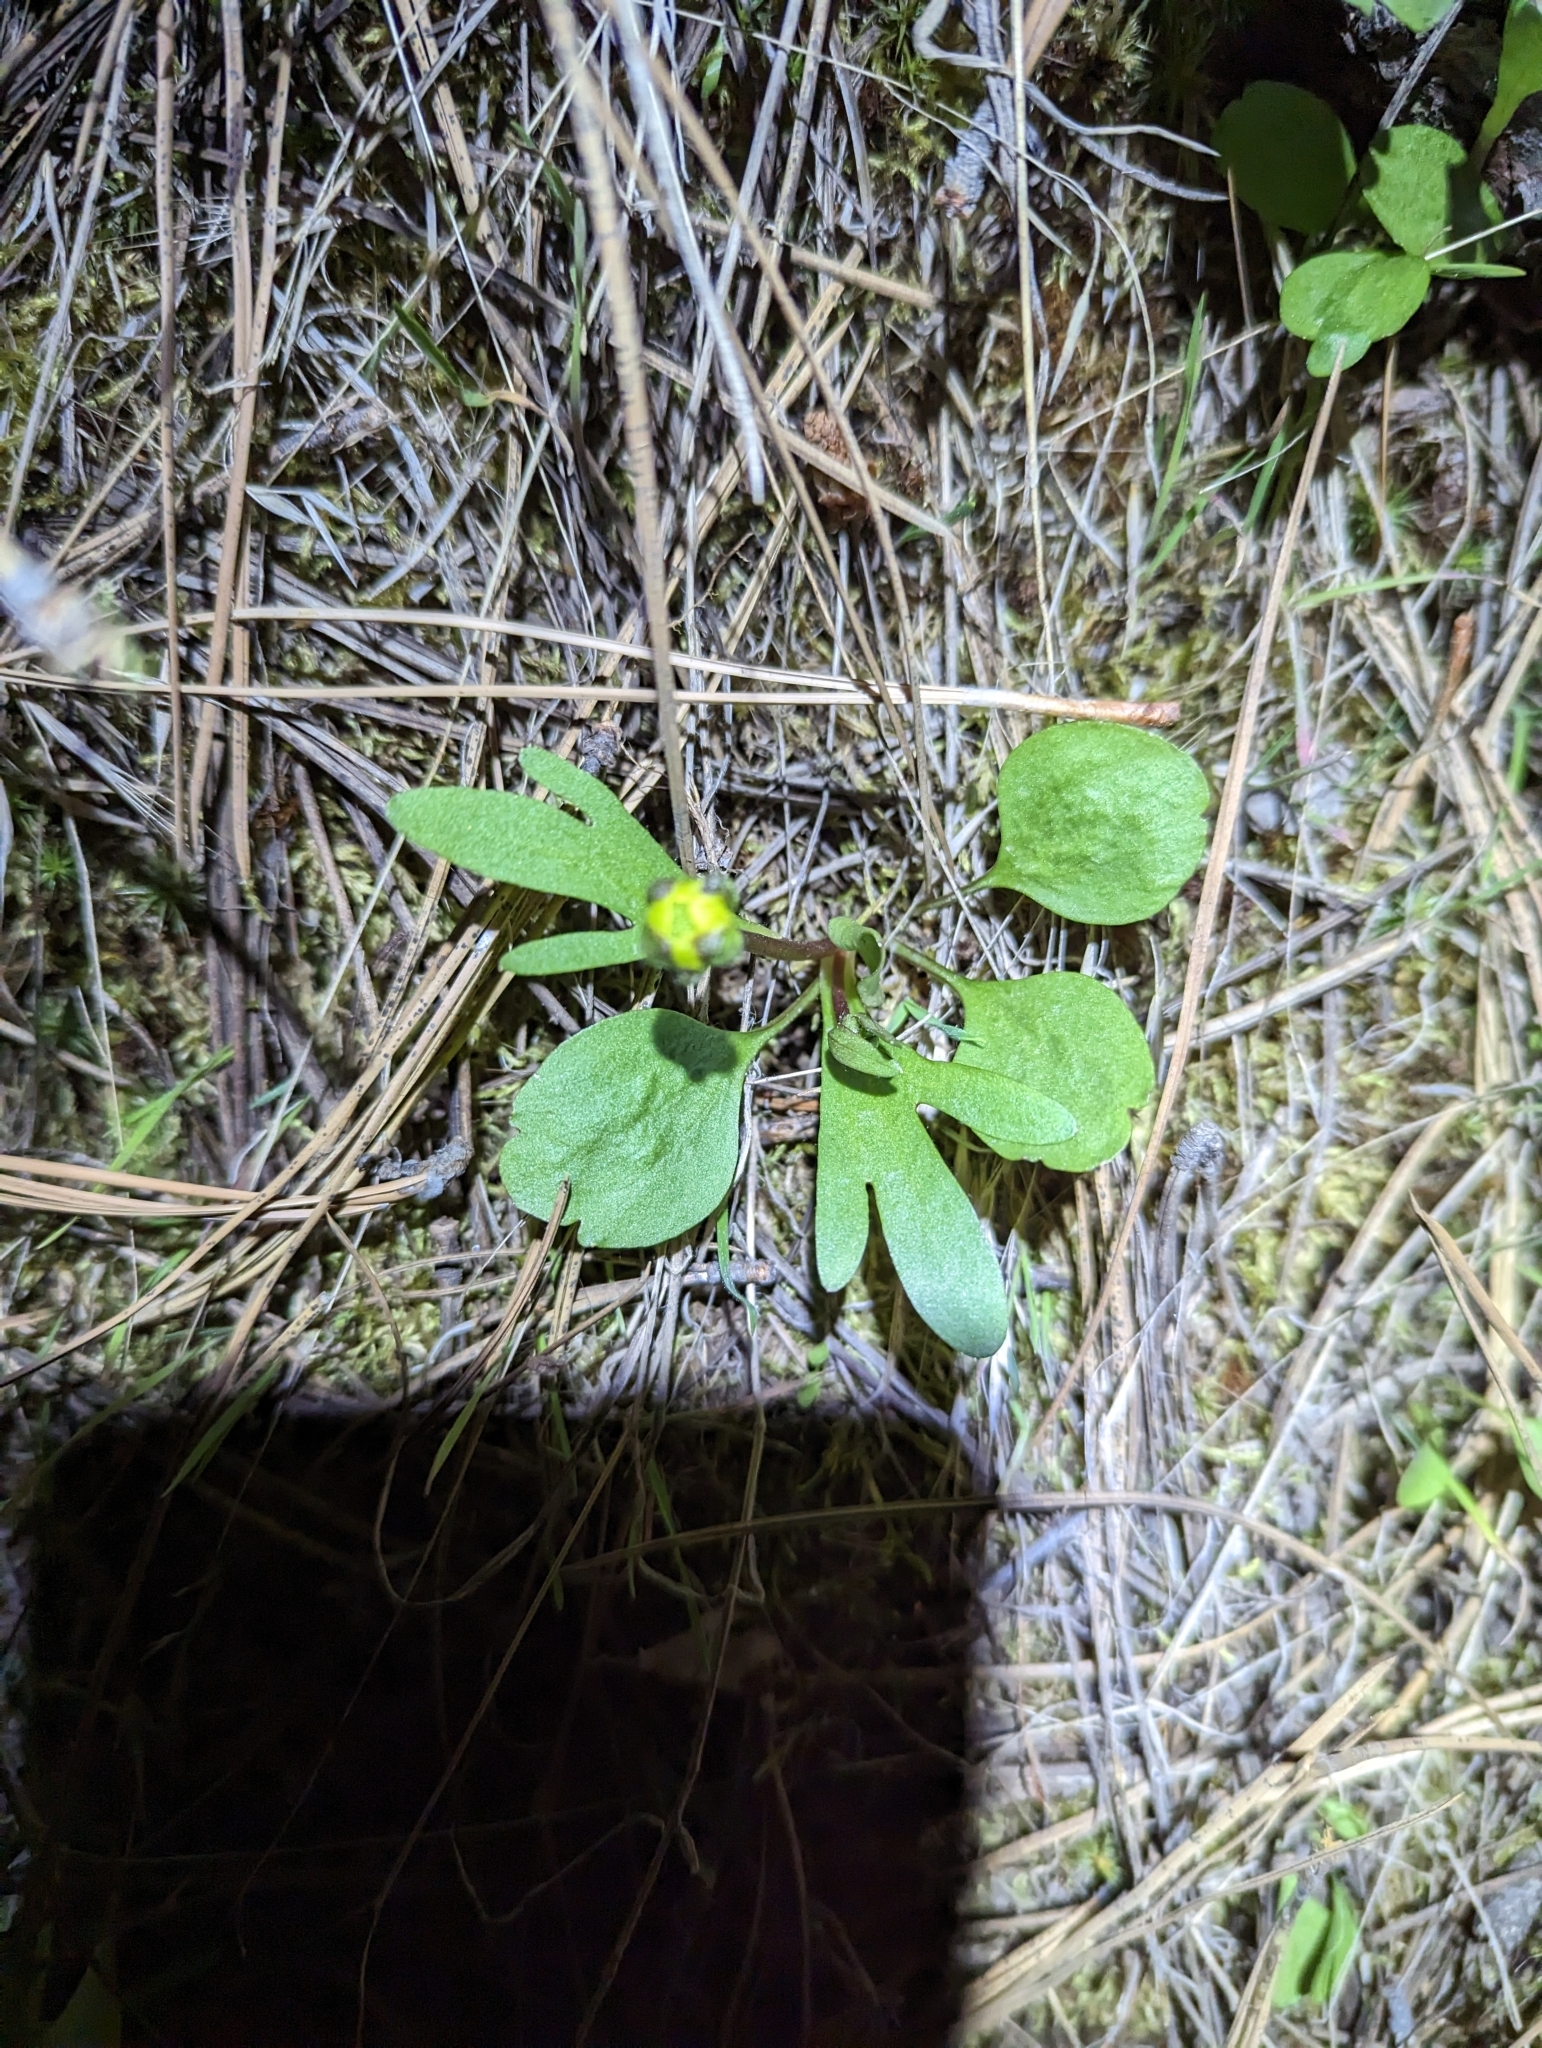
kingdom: Plantae
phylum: Tracheophyta
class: Magnoliopsida
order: Ranunculales
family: Ranunculaceae
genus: Ranunculus
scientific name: Ranunculus glaberrimus
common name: Sagebrush buttercup
